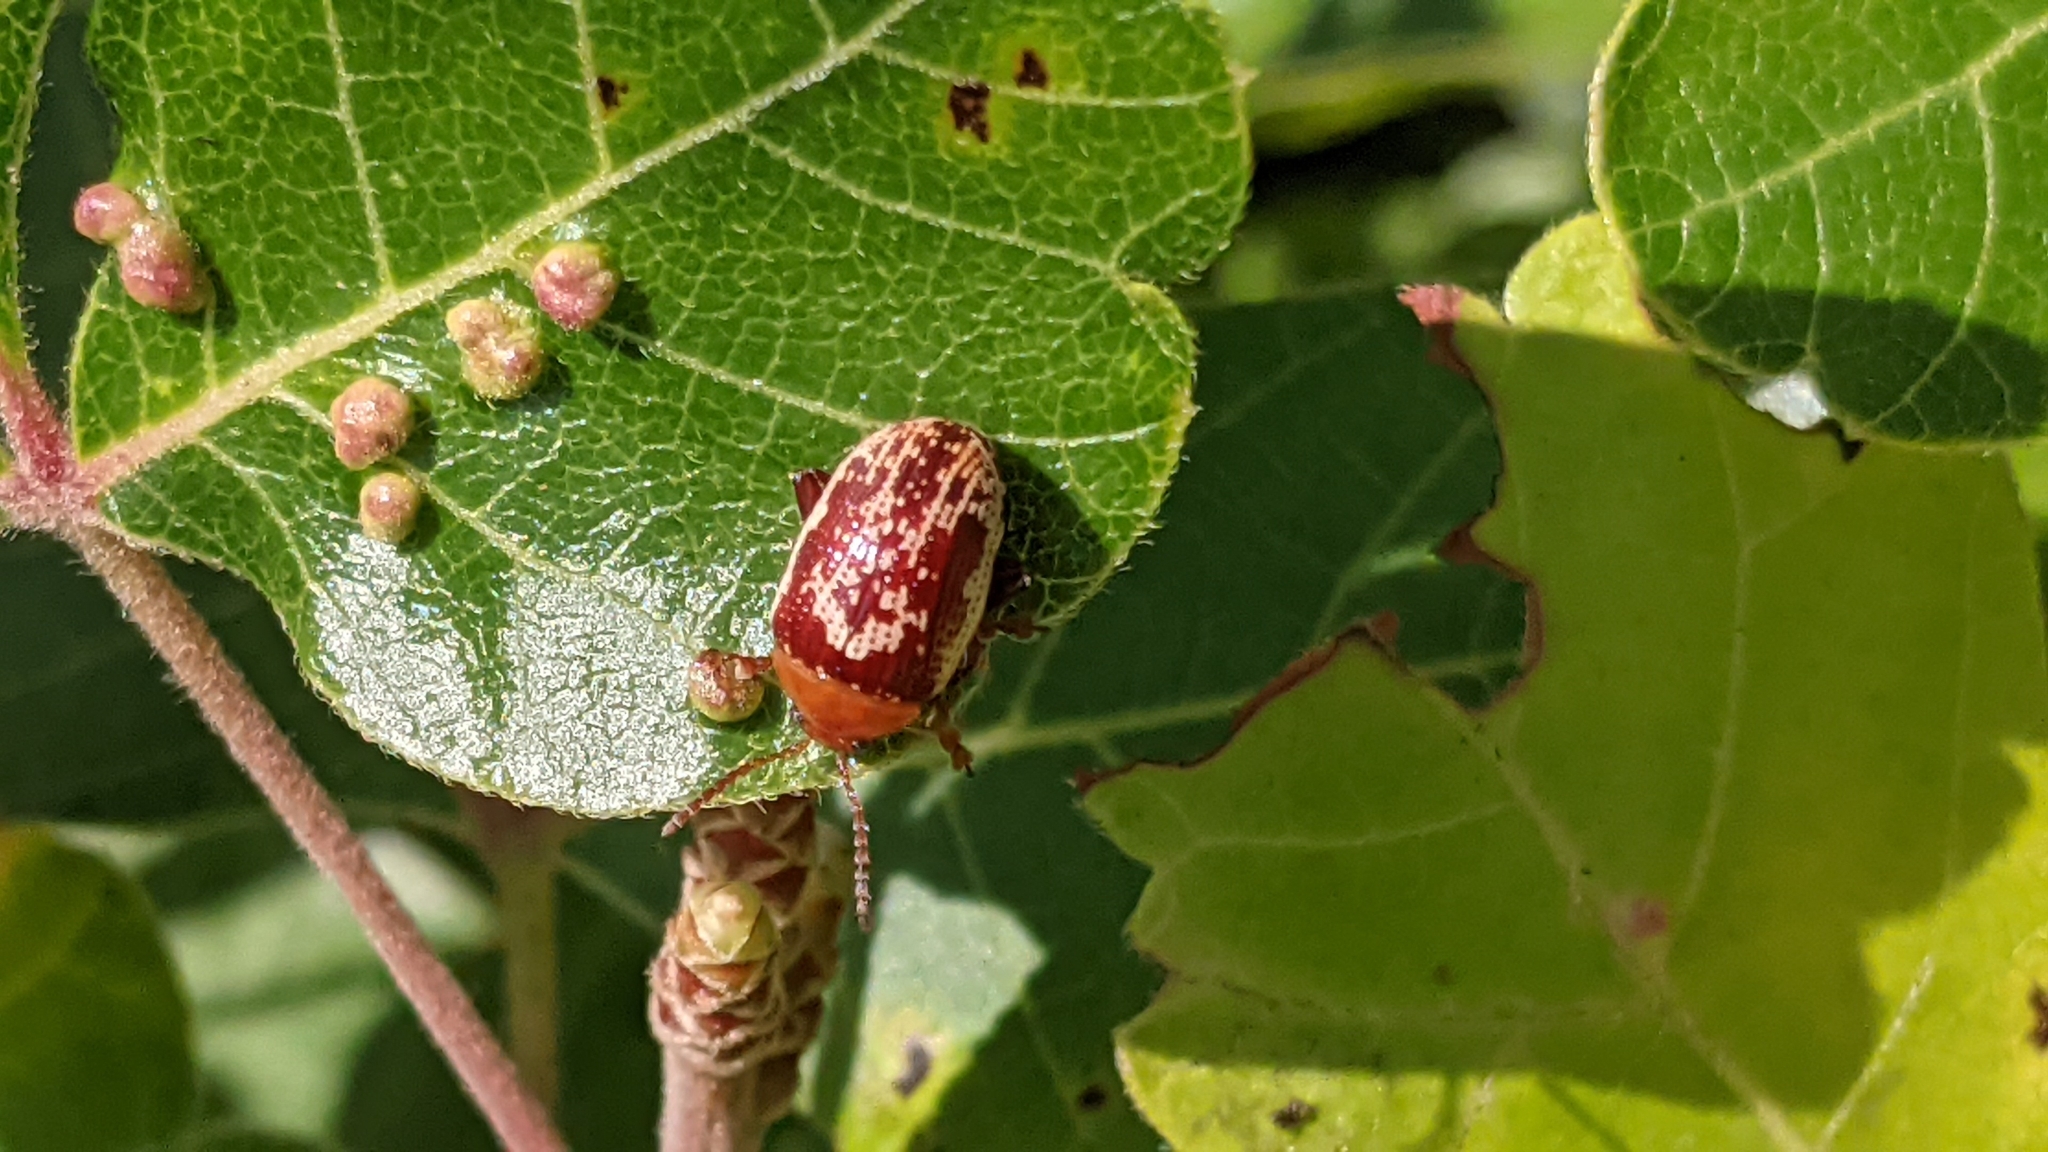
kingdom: Animalia
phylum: Arthropoda
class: Insecta
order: Coleoptera
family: Chrysomelidae
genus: Blepharida
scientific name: Blepharida rhois
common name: Sumac flea beetle
